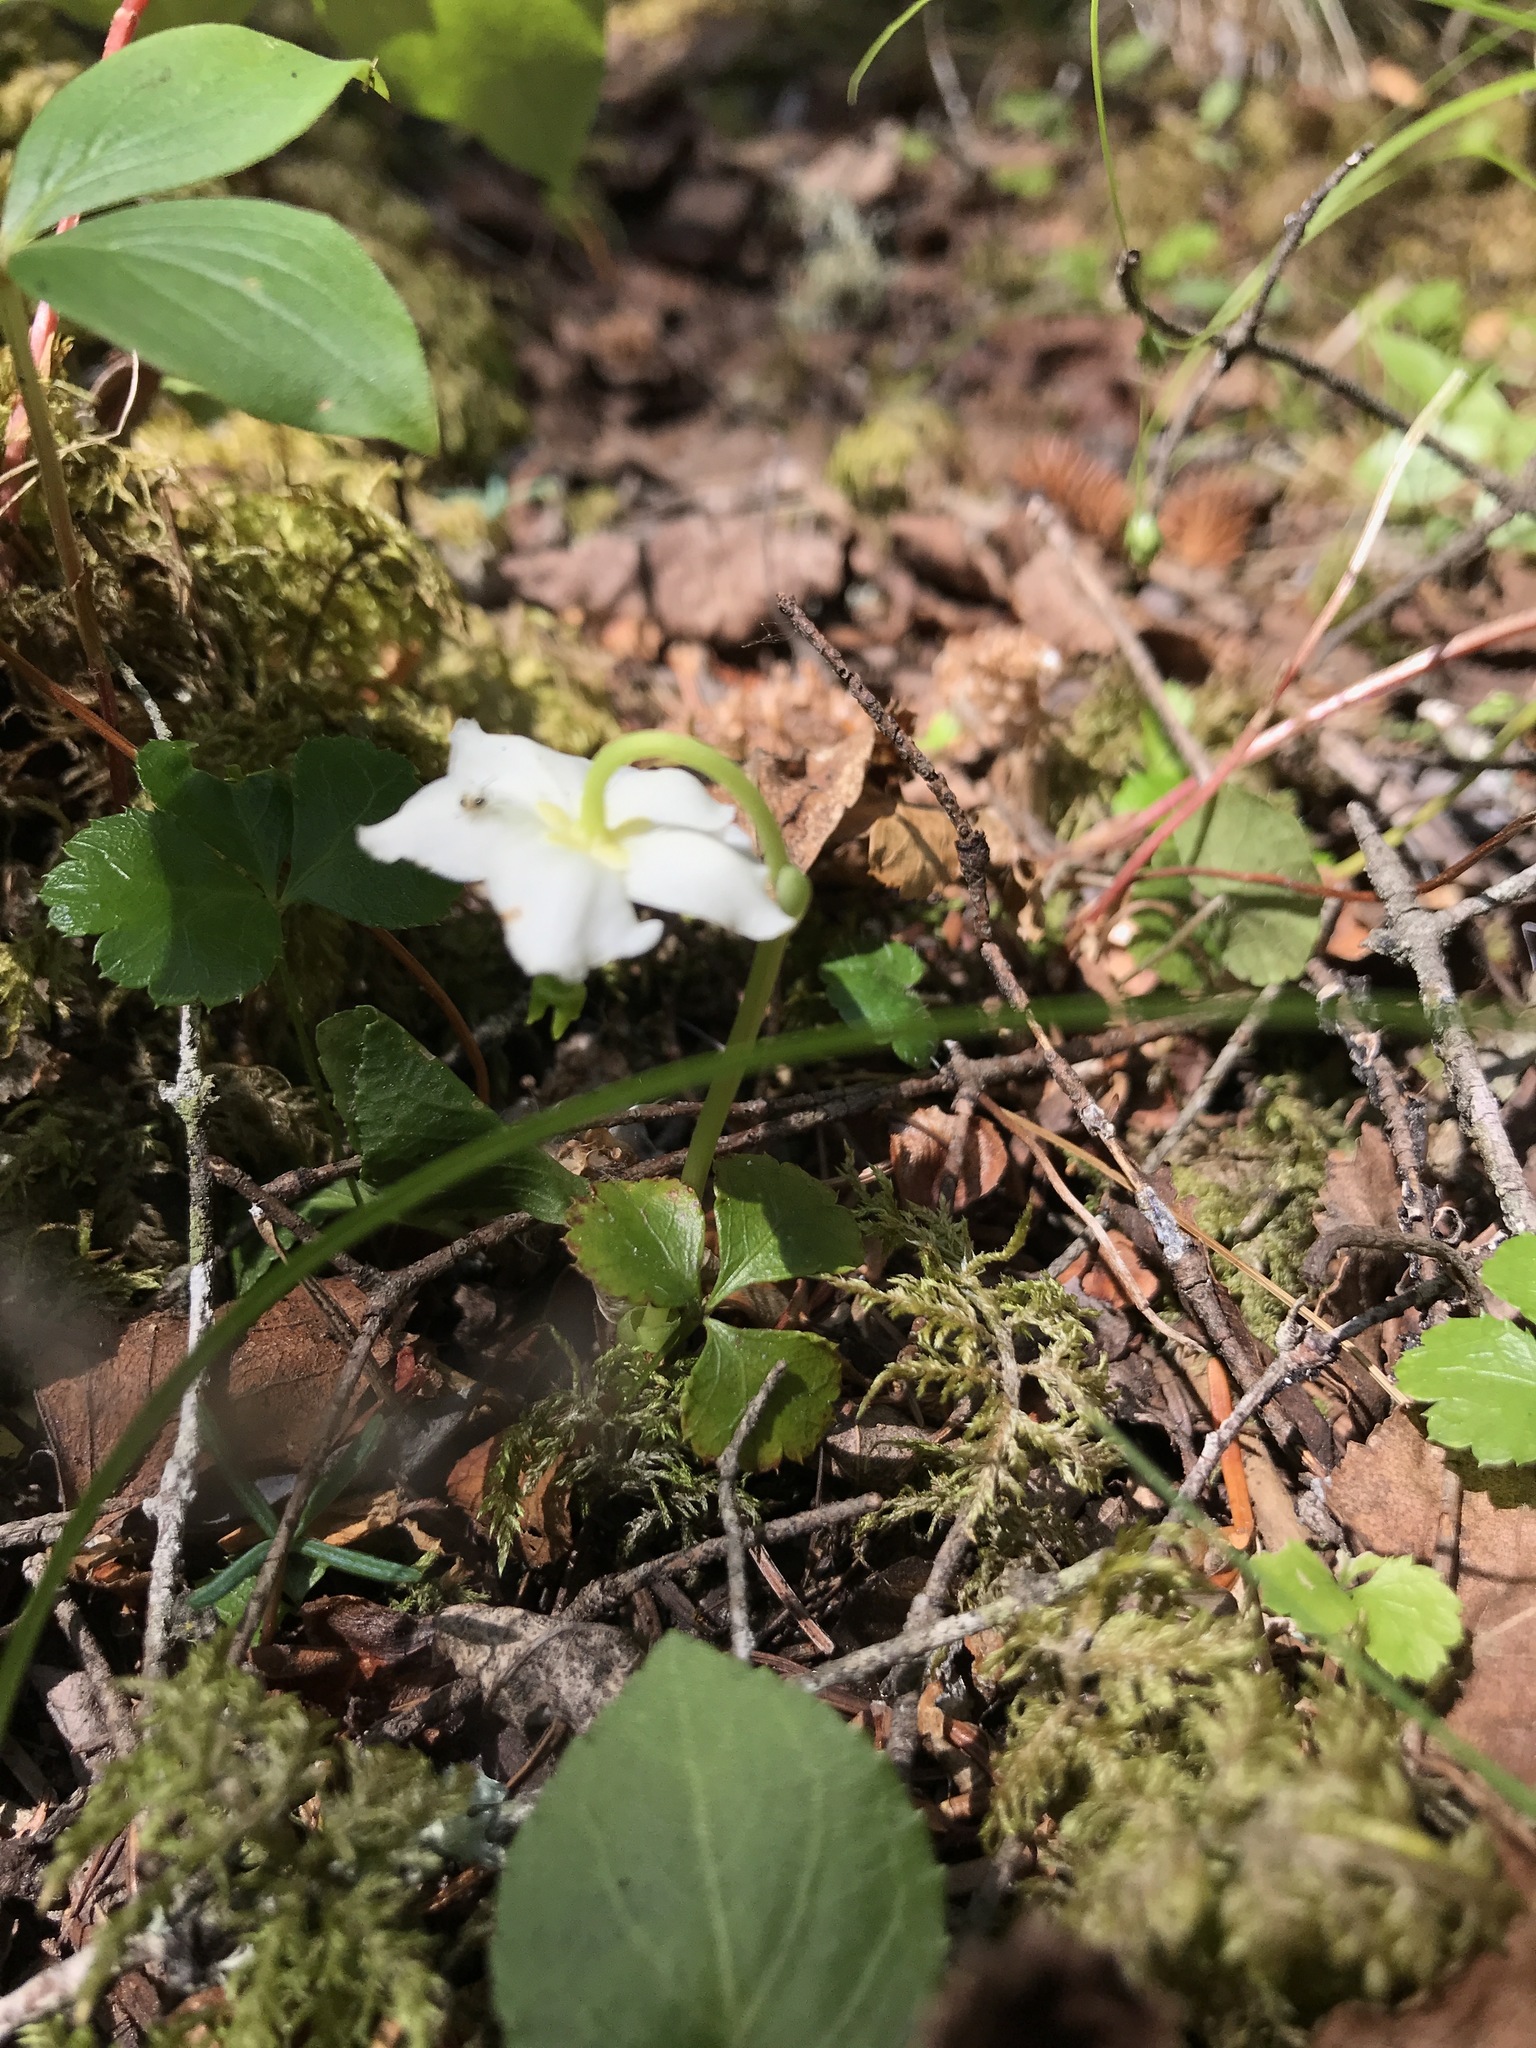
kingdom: Plantae
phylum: Tracheophyta
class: Magnoliopsida
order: Ericales
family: Ericaceae
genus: Moneses
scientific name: Moneses uniflora
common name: One-flowered wintergreen
